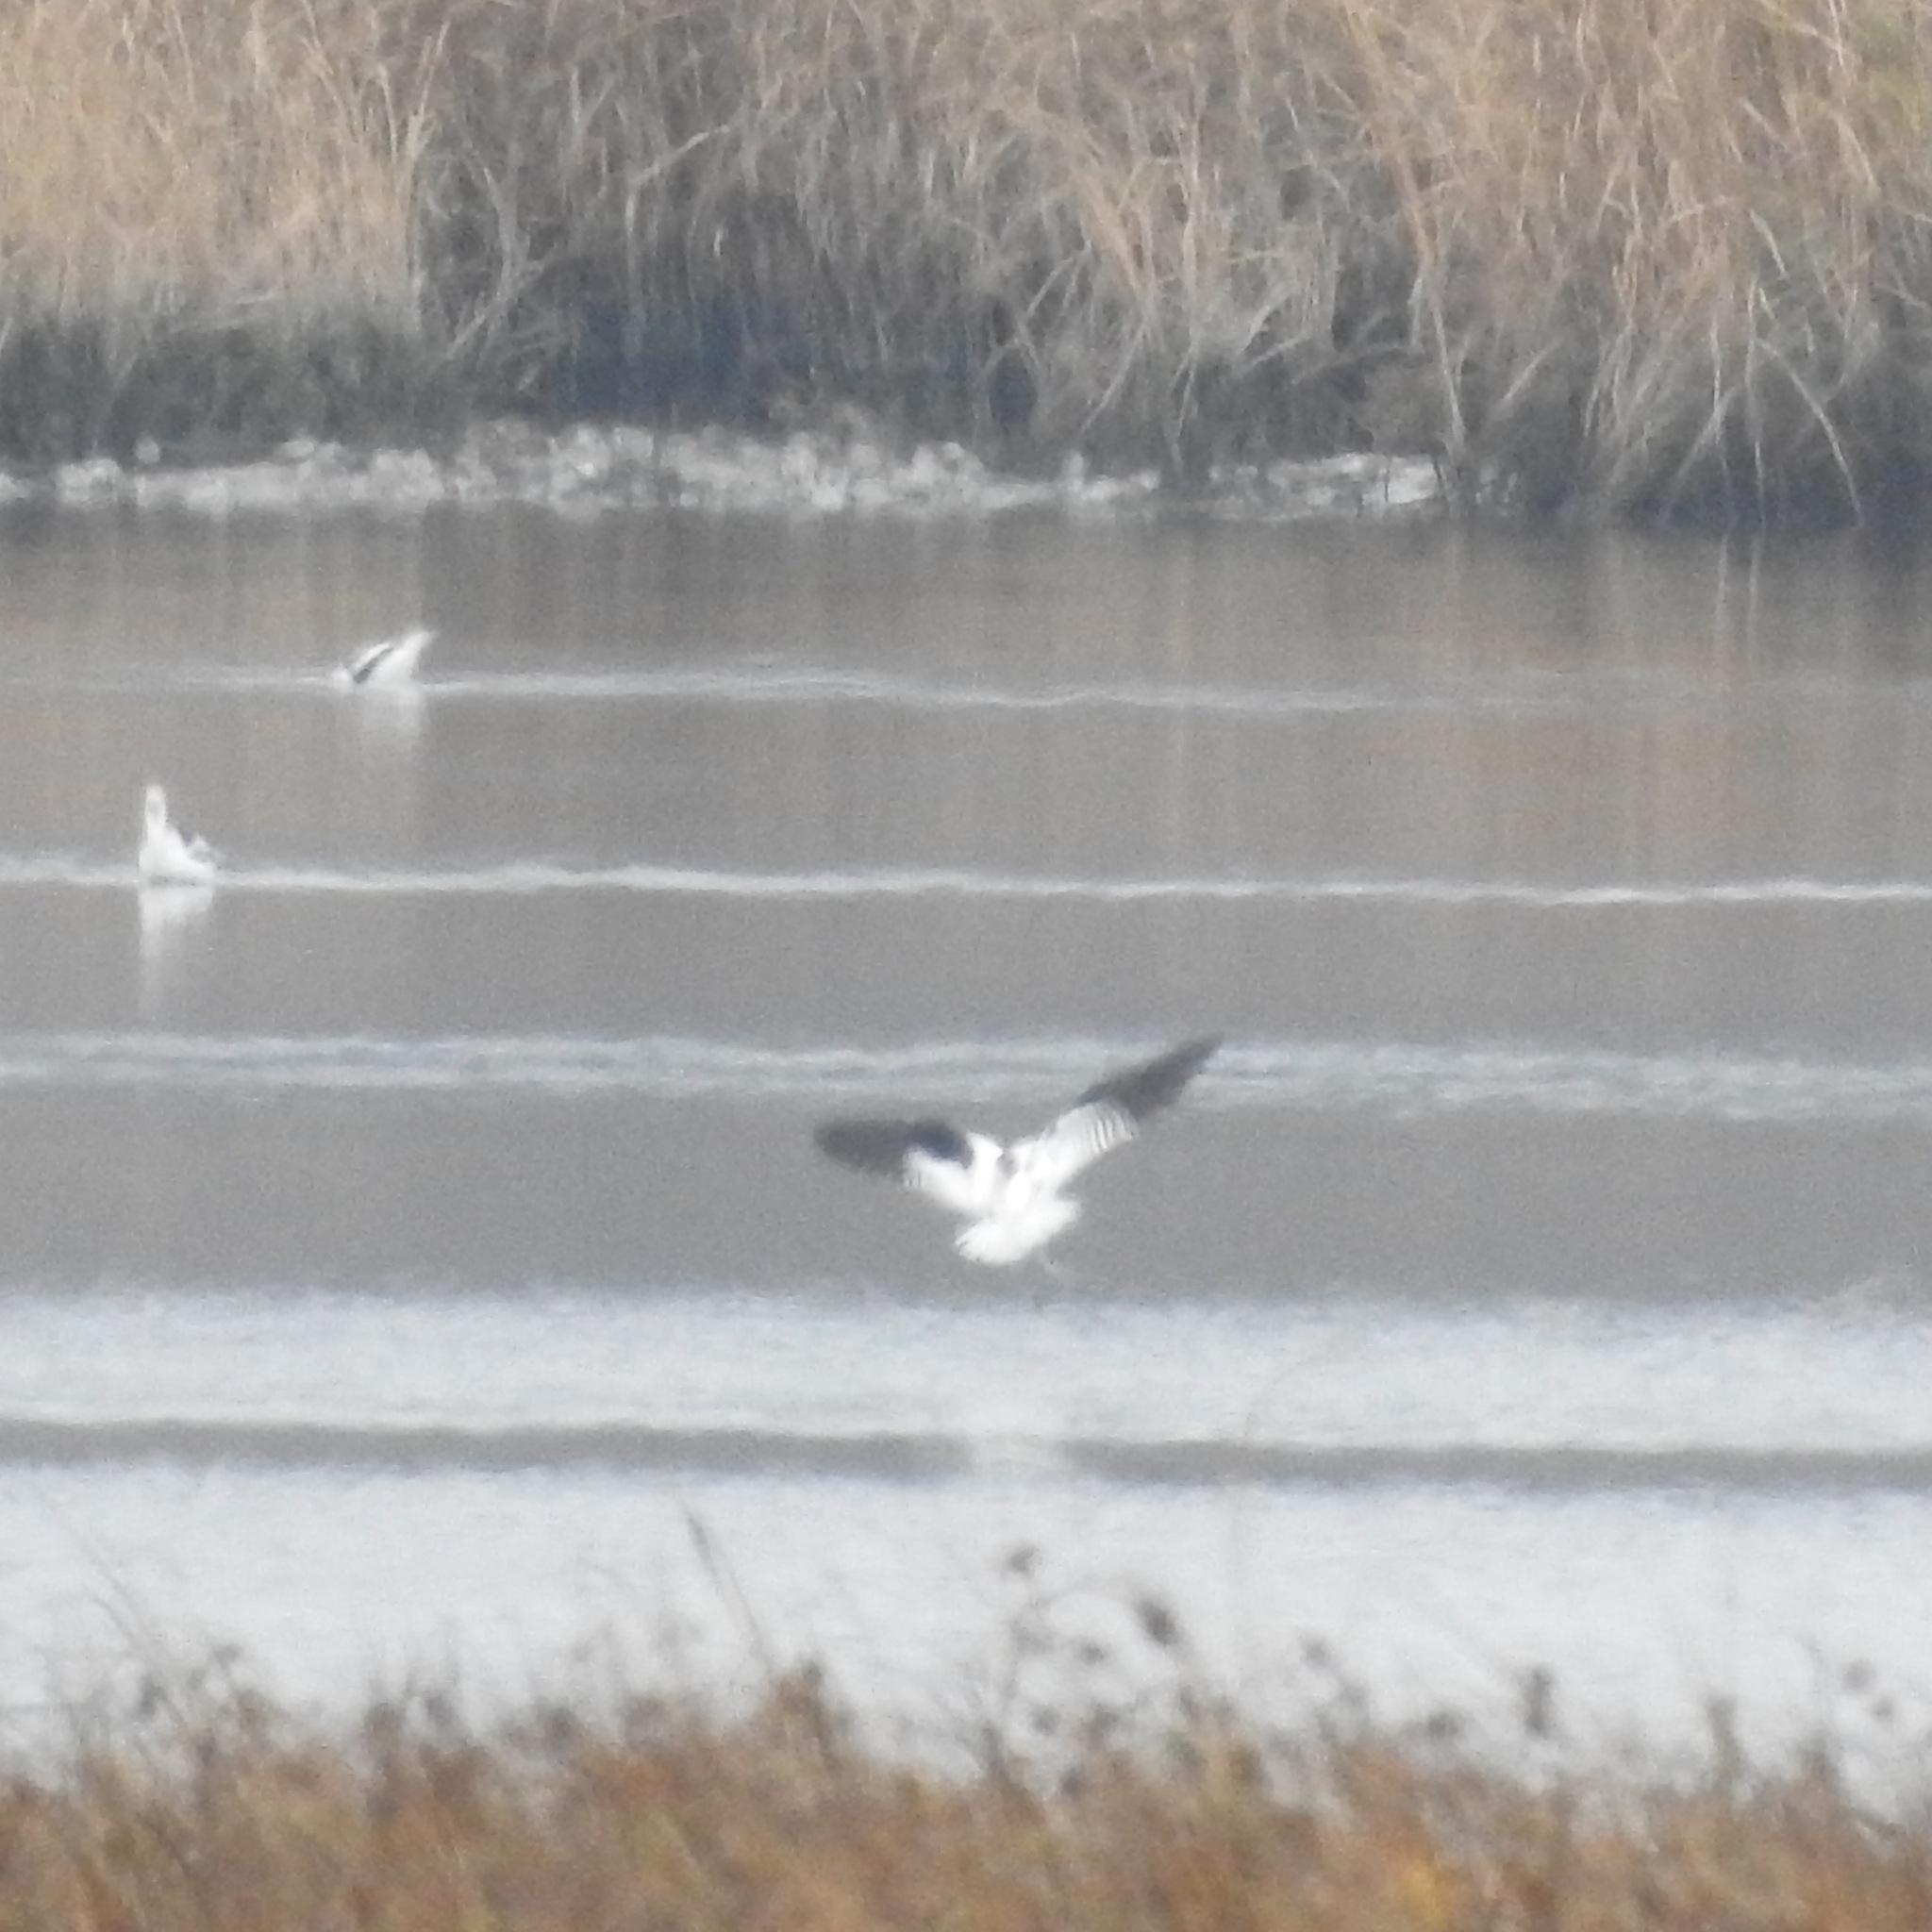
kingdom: Animalia
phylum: Chordata
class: Aves
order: Charadriiformes
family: Recurvirostridae
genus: Recurvirostra
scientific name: Recurvirostra americana
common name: American avocet
